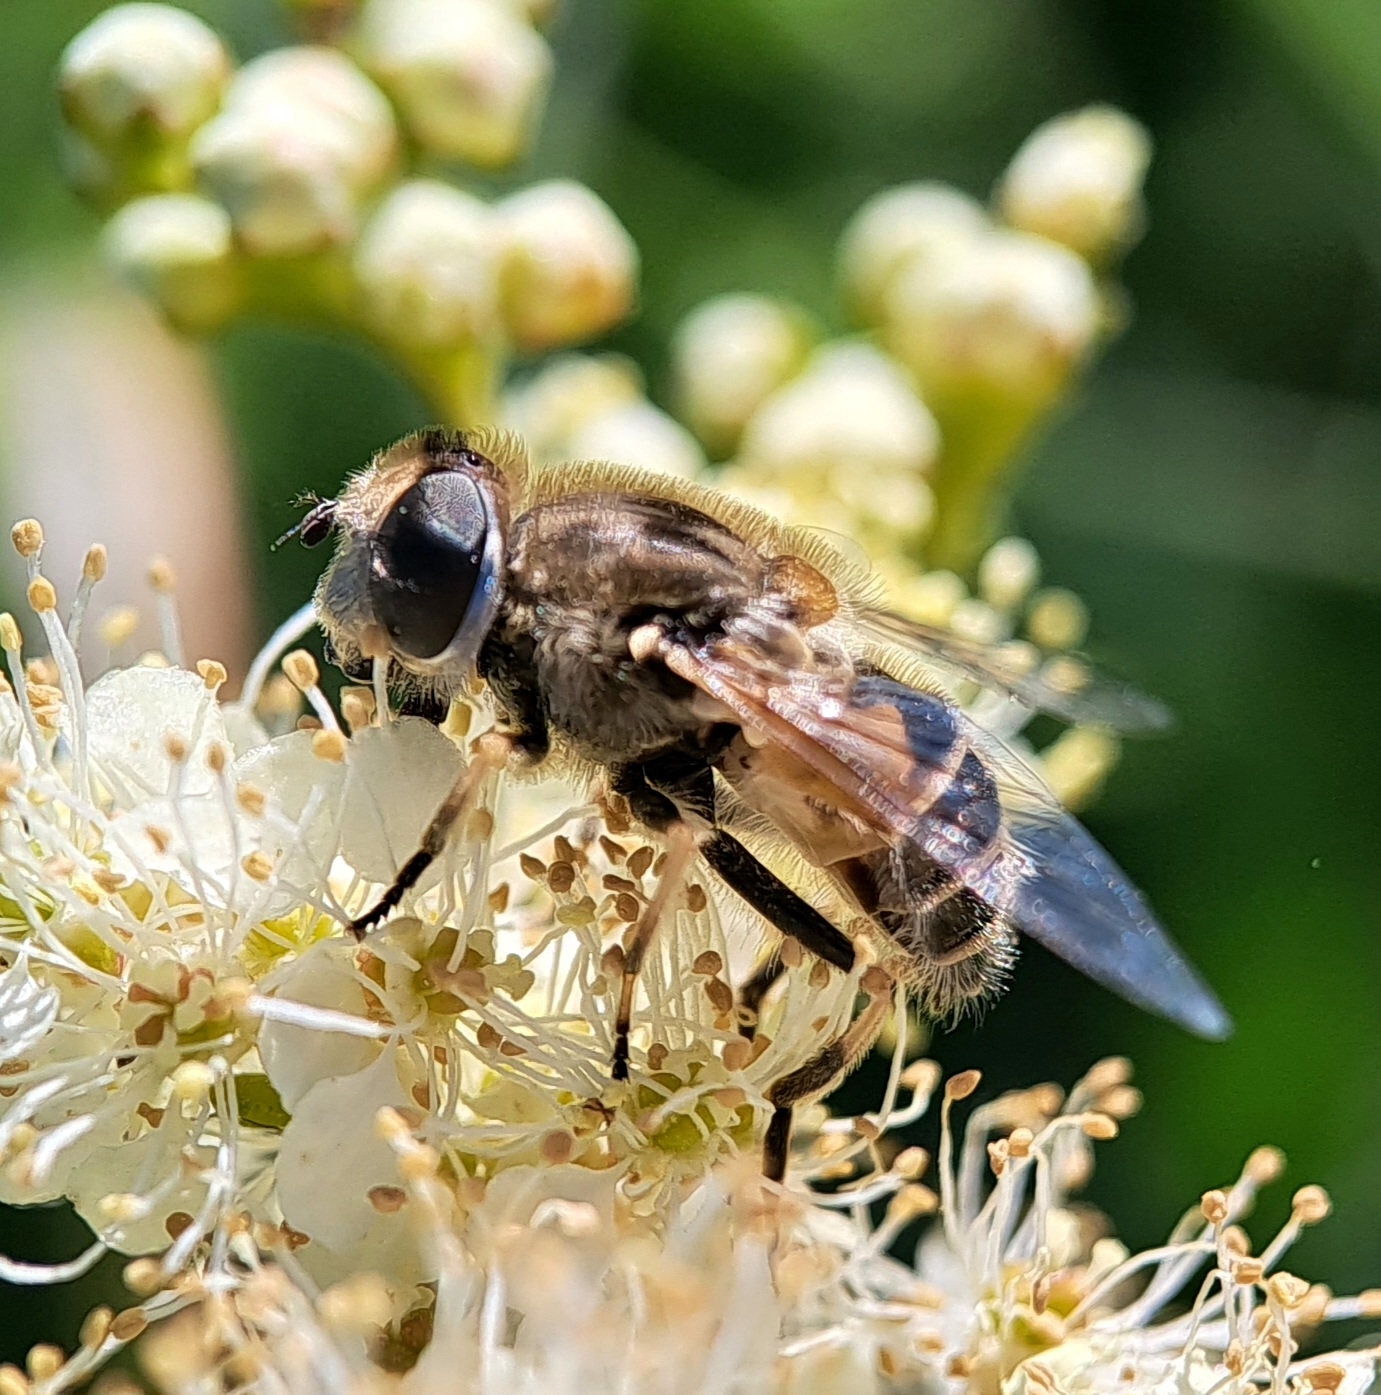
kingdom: Animalia
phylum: Arthropoda
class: Insecta
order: Diptera
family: Syrphidae
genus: Eristalis
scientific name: Eristalis arbustorum
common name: Hover fly
